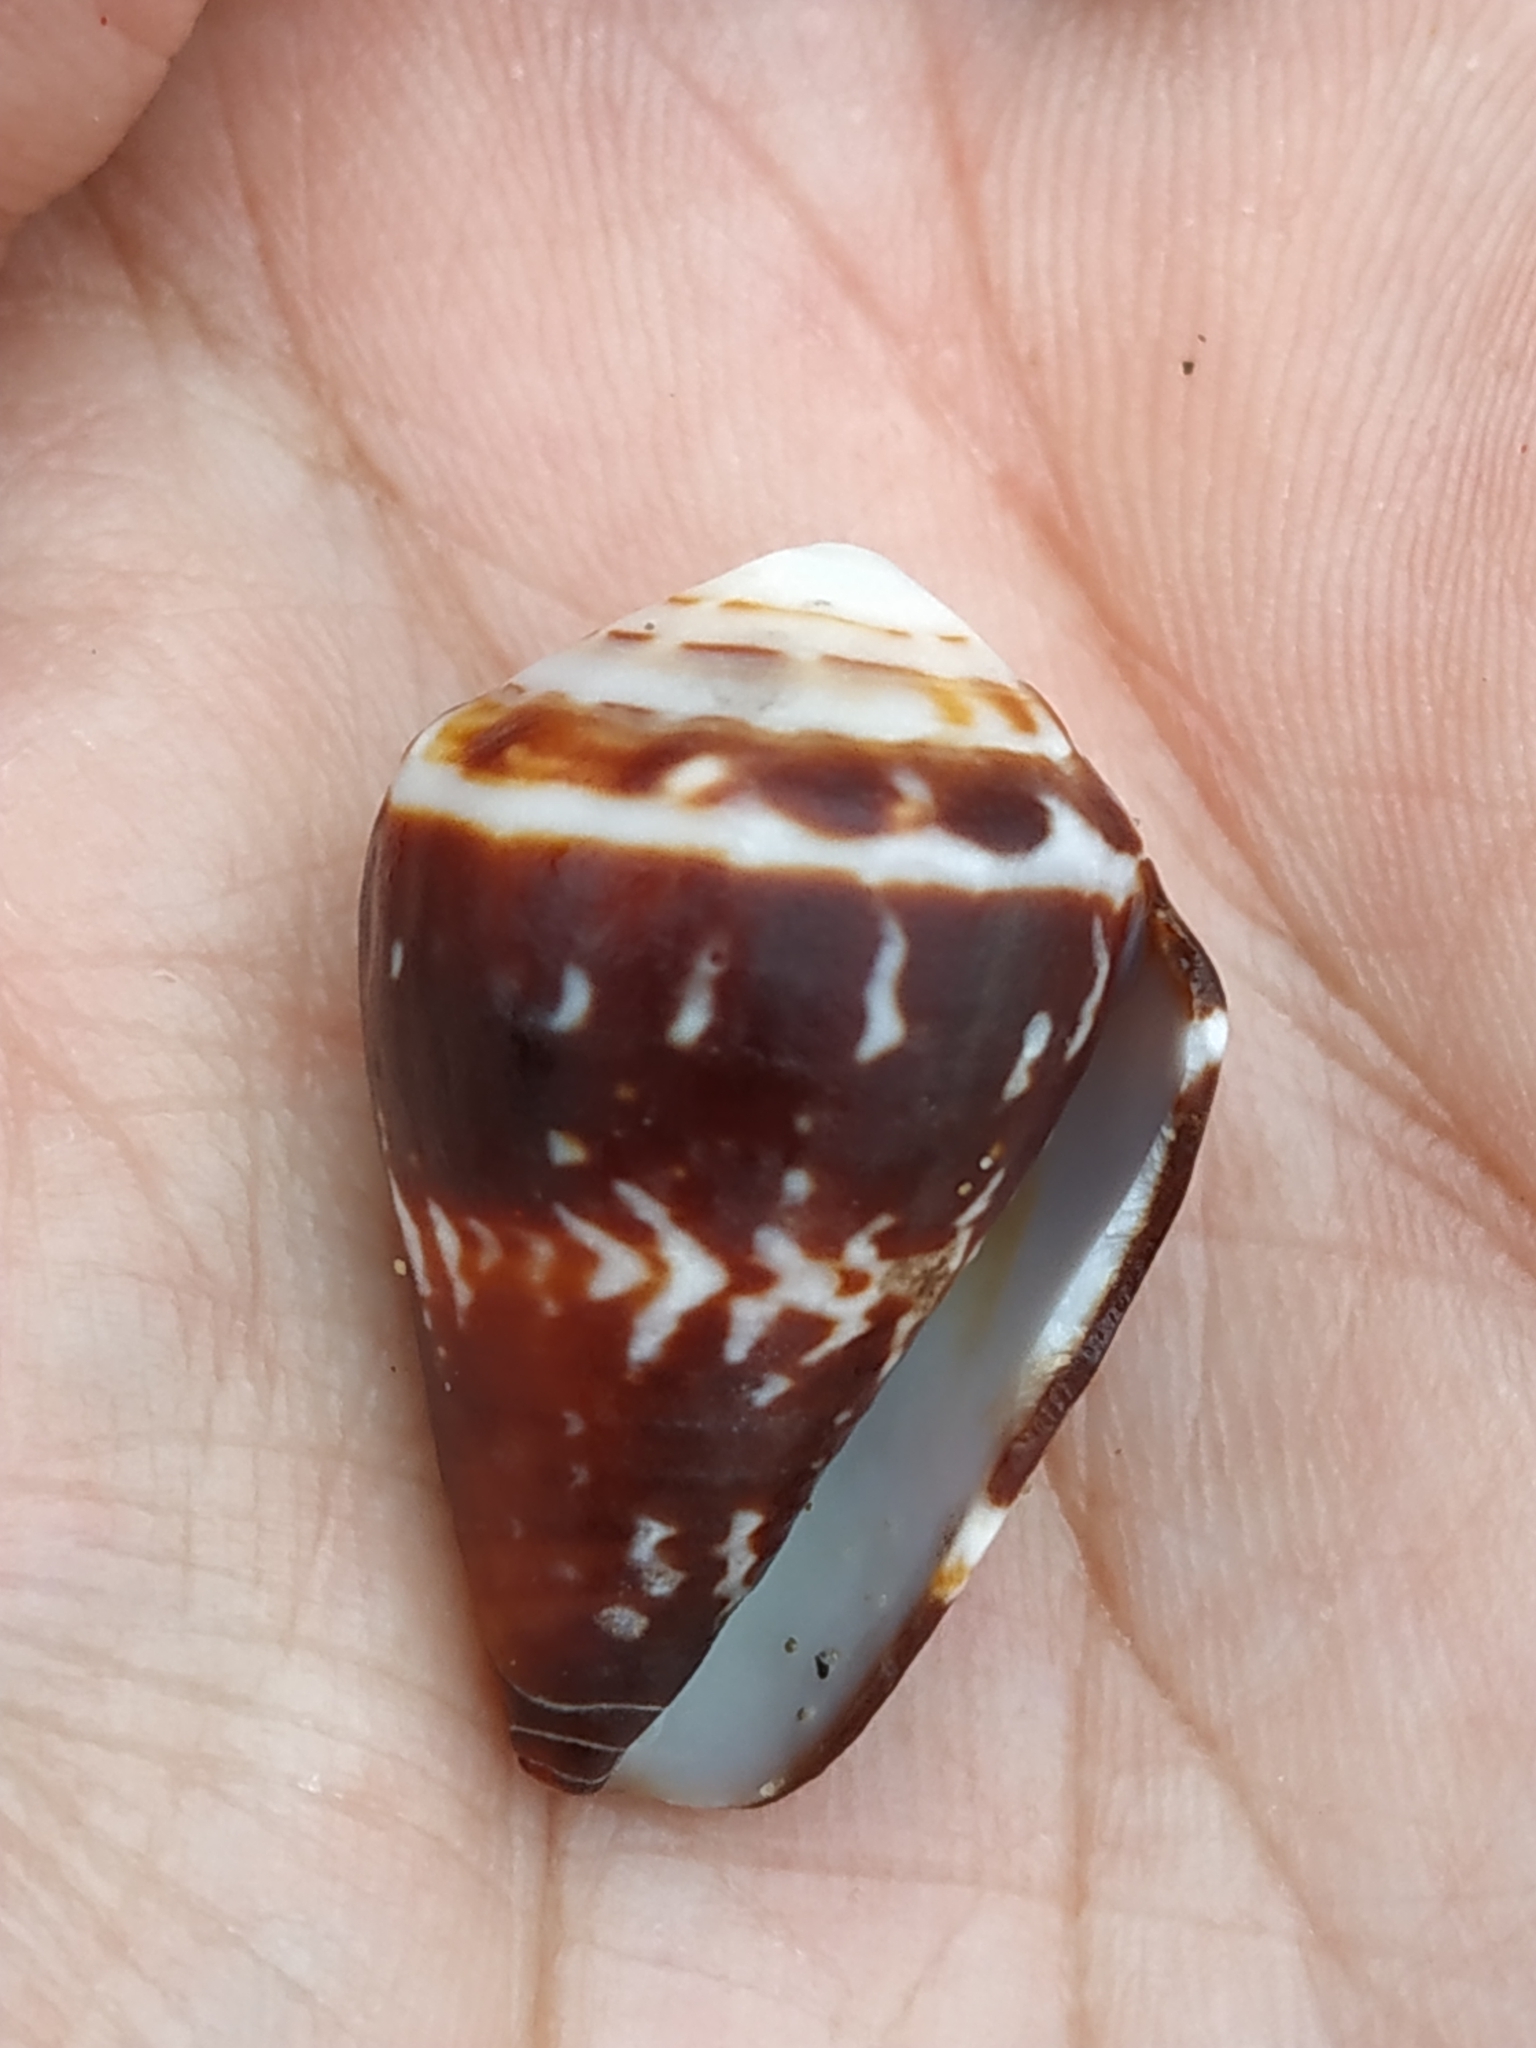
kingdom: Animalia
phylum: Mollusca
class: Gastropoda
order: Neogastropoda
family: Conidae
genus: Conus
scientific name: Conus chaldaeus
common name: Astrologer's cone
